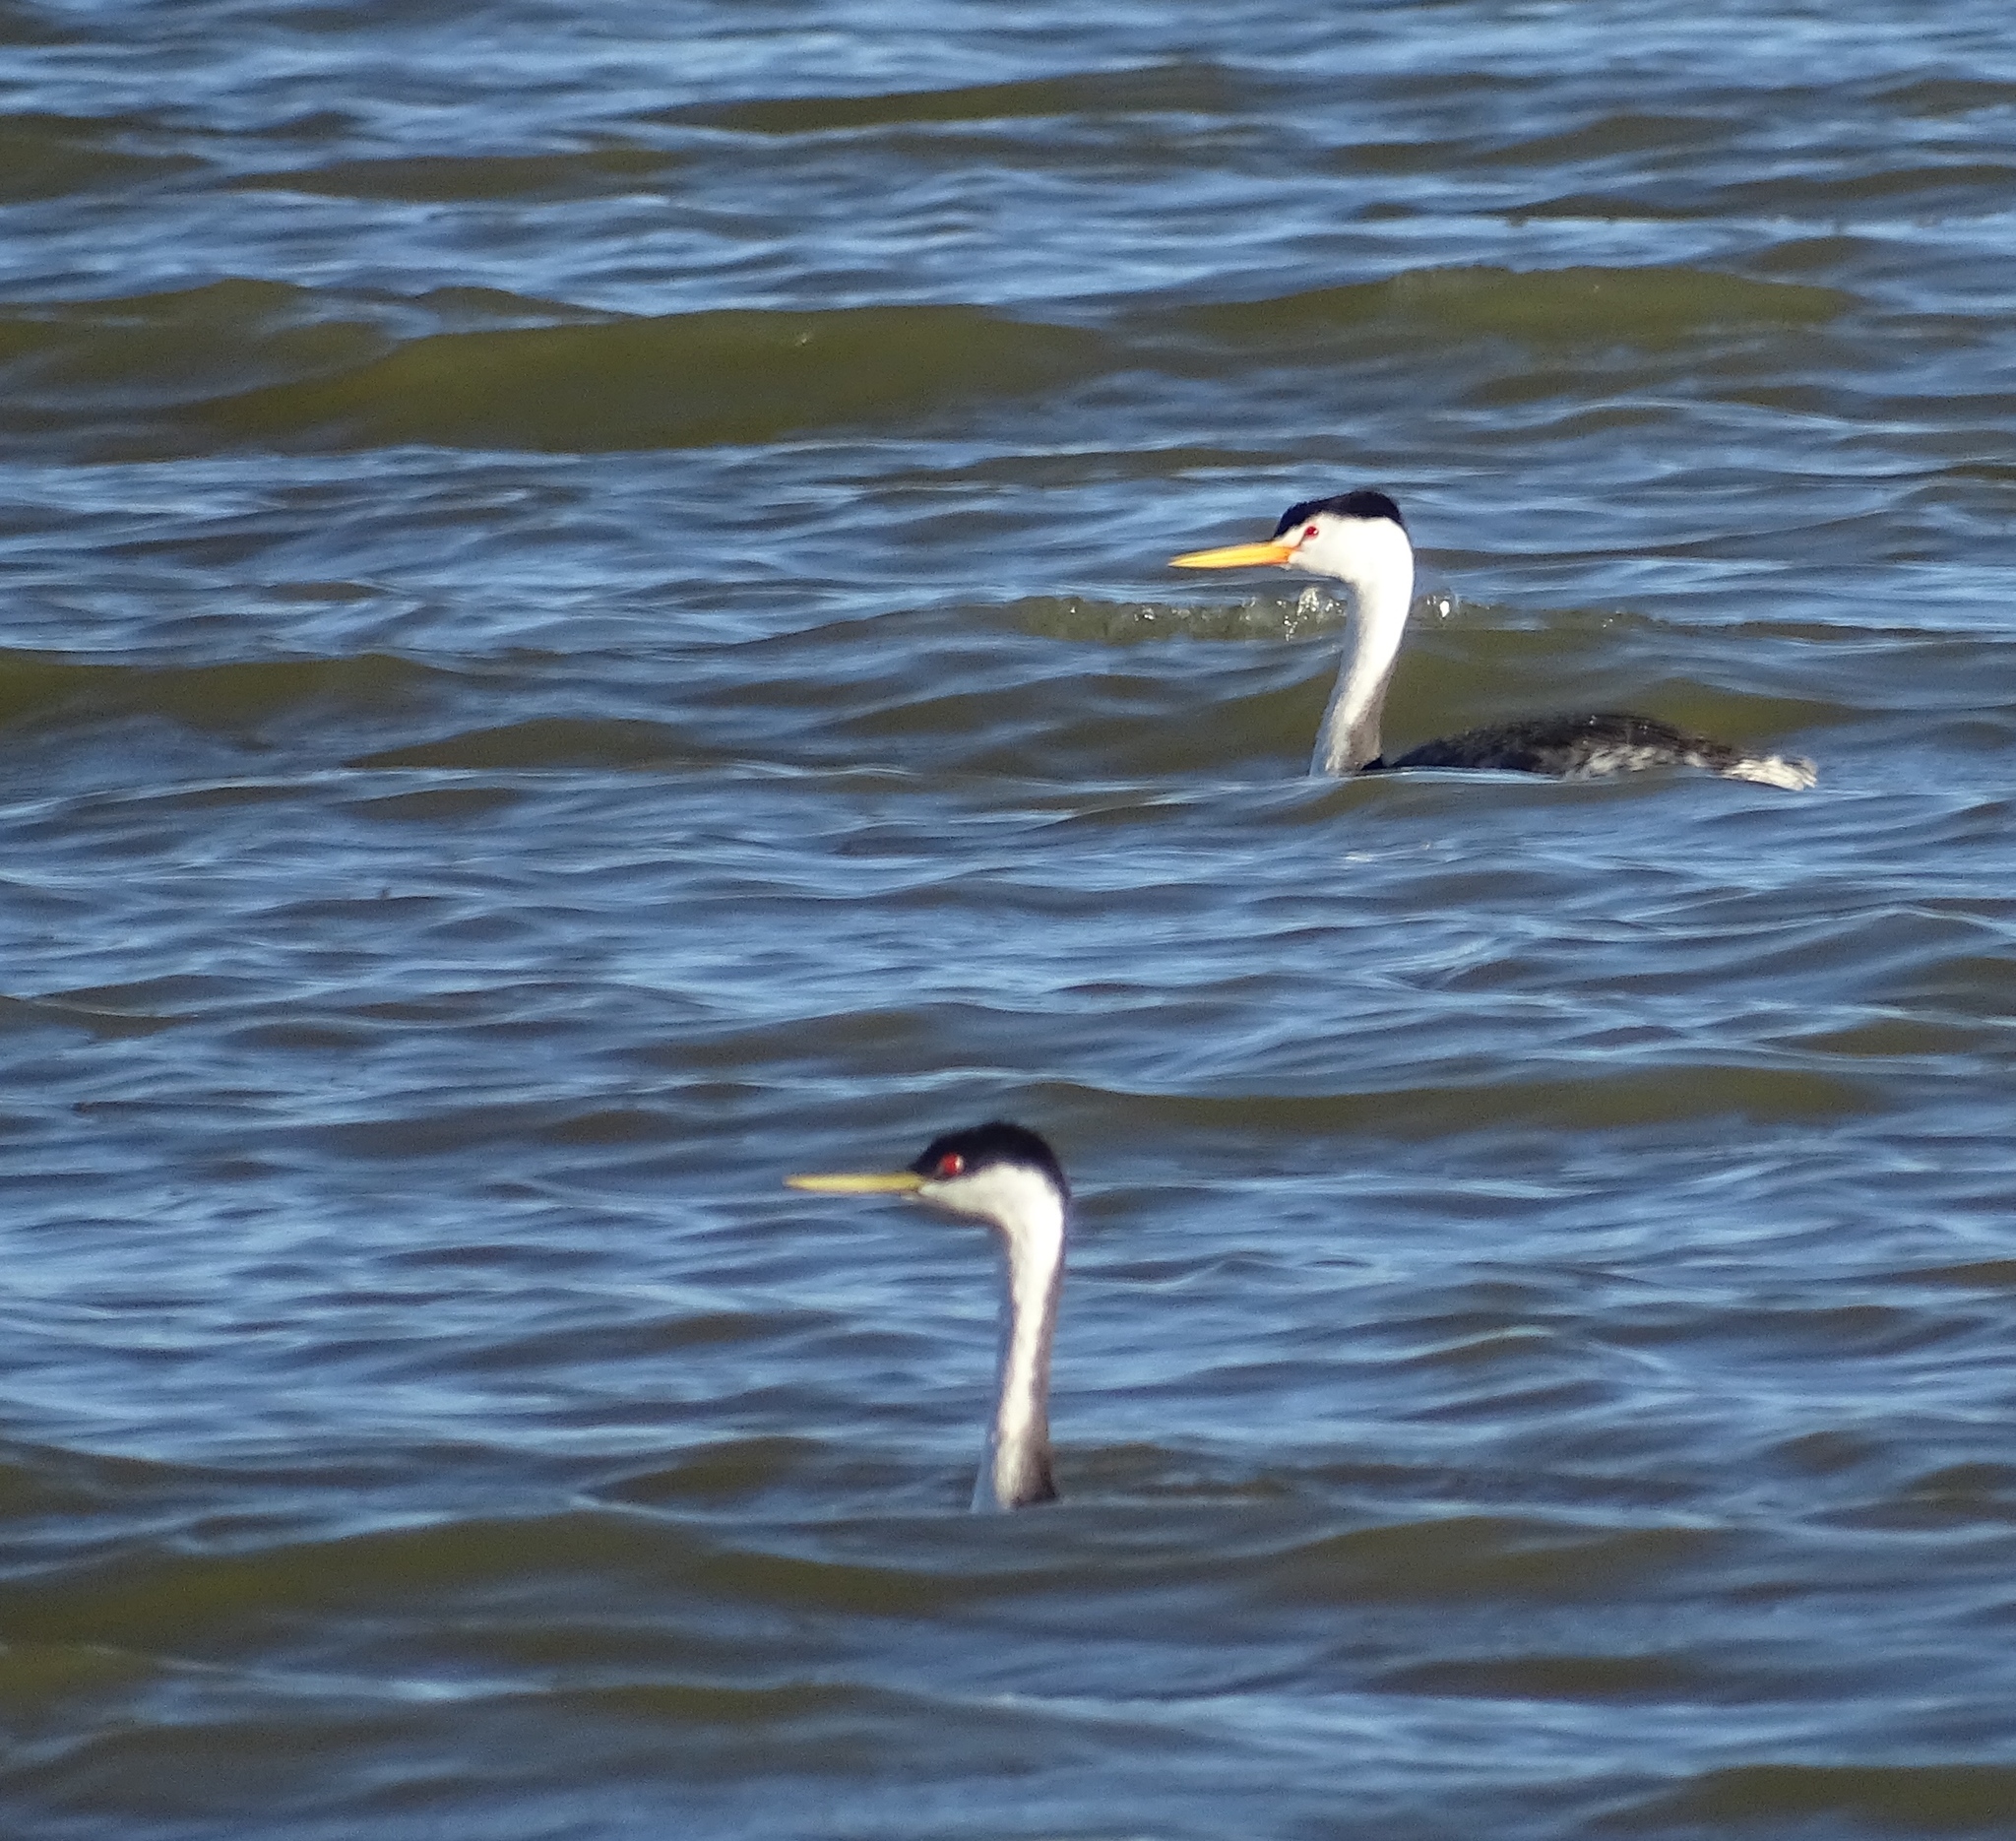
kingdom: Animalia
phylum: Chordata
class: Aves
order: Podicipediformes
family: Podicipedidae
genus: Aechmophorus
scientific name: Aechmophorus occidentalis
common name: Western grebe
